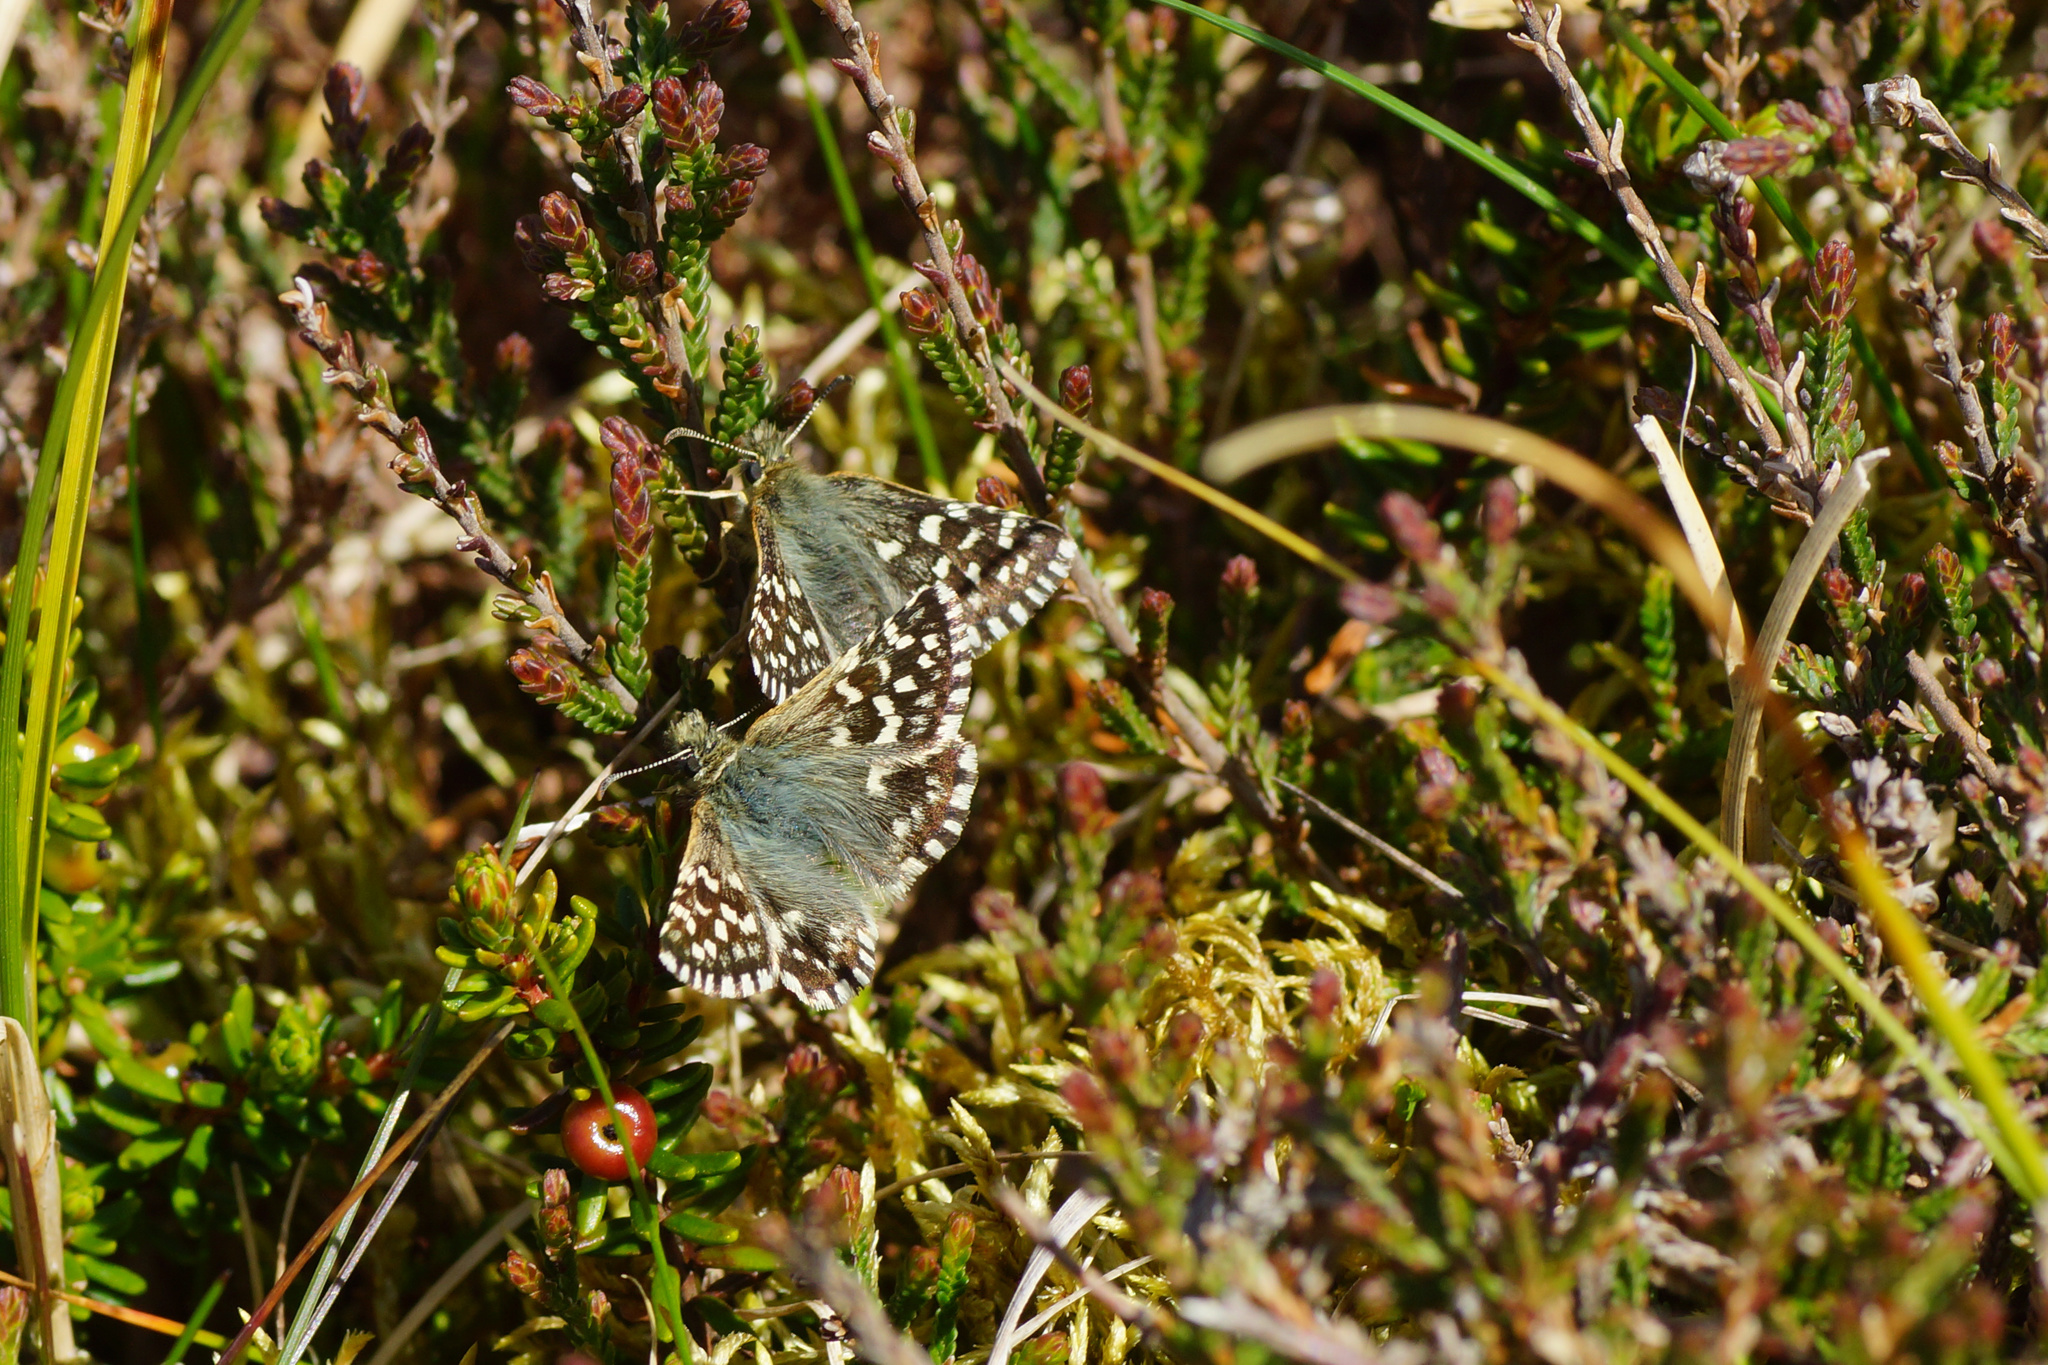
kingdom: Animalia
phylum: Arthropoda
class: Insecta
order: Lepidoptera
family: Hesperiidae
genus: Pyrgus
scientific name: Pyrgus malvae
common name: Grizzled skipper
